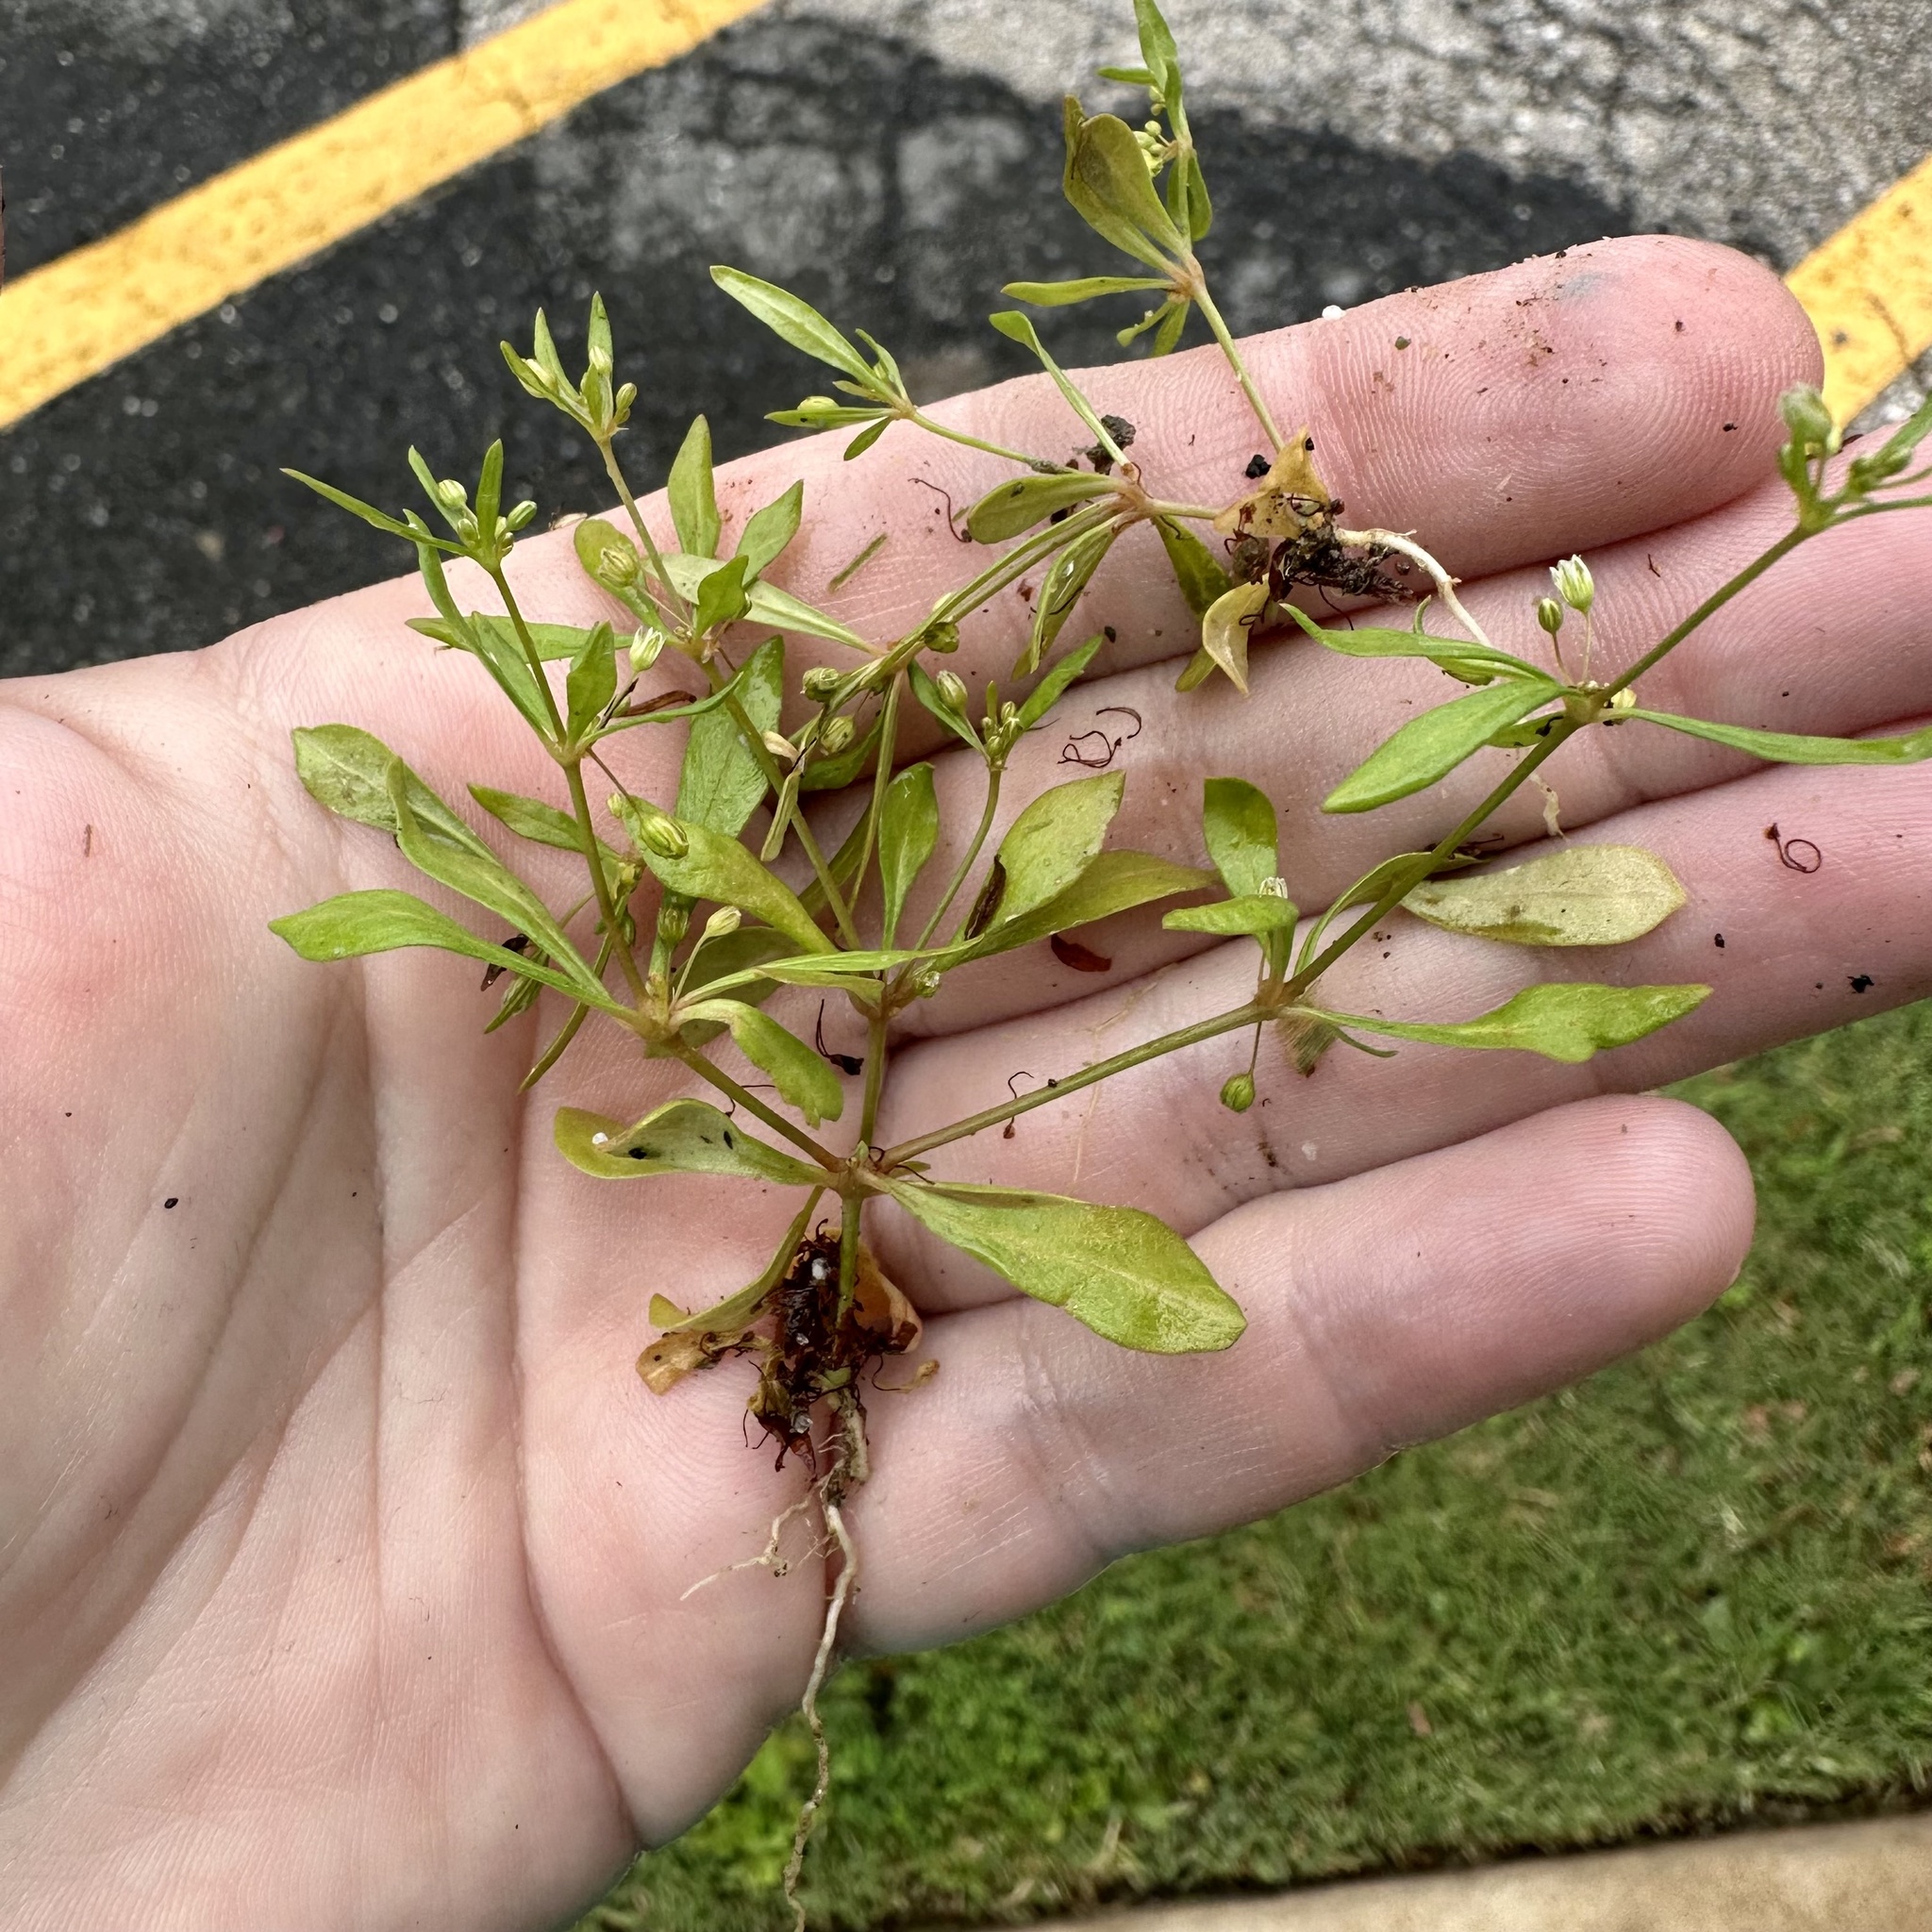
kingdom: Plantae
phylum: Tracheophyta
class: Magnoliopsida
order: Caryophyllales
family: Molluginaceae
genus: Mollugo
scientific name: Mollugo verticillata
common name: Green carpetweed
